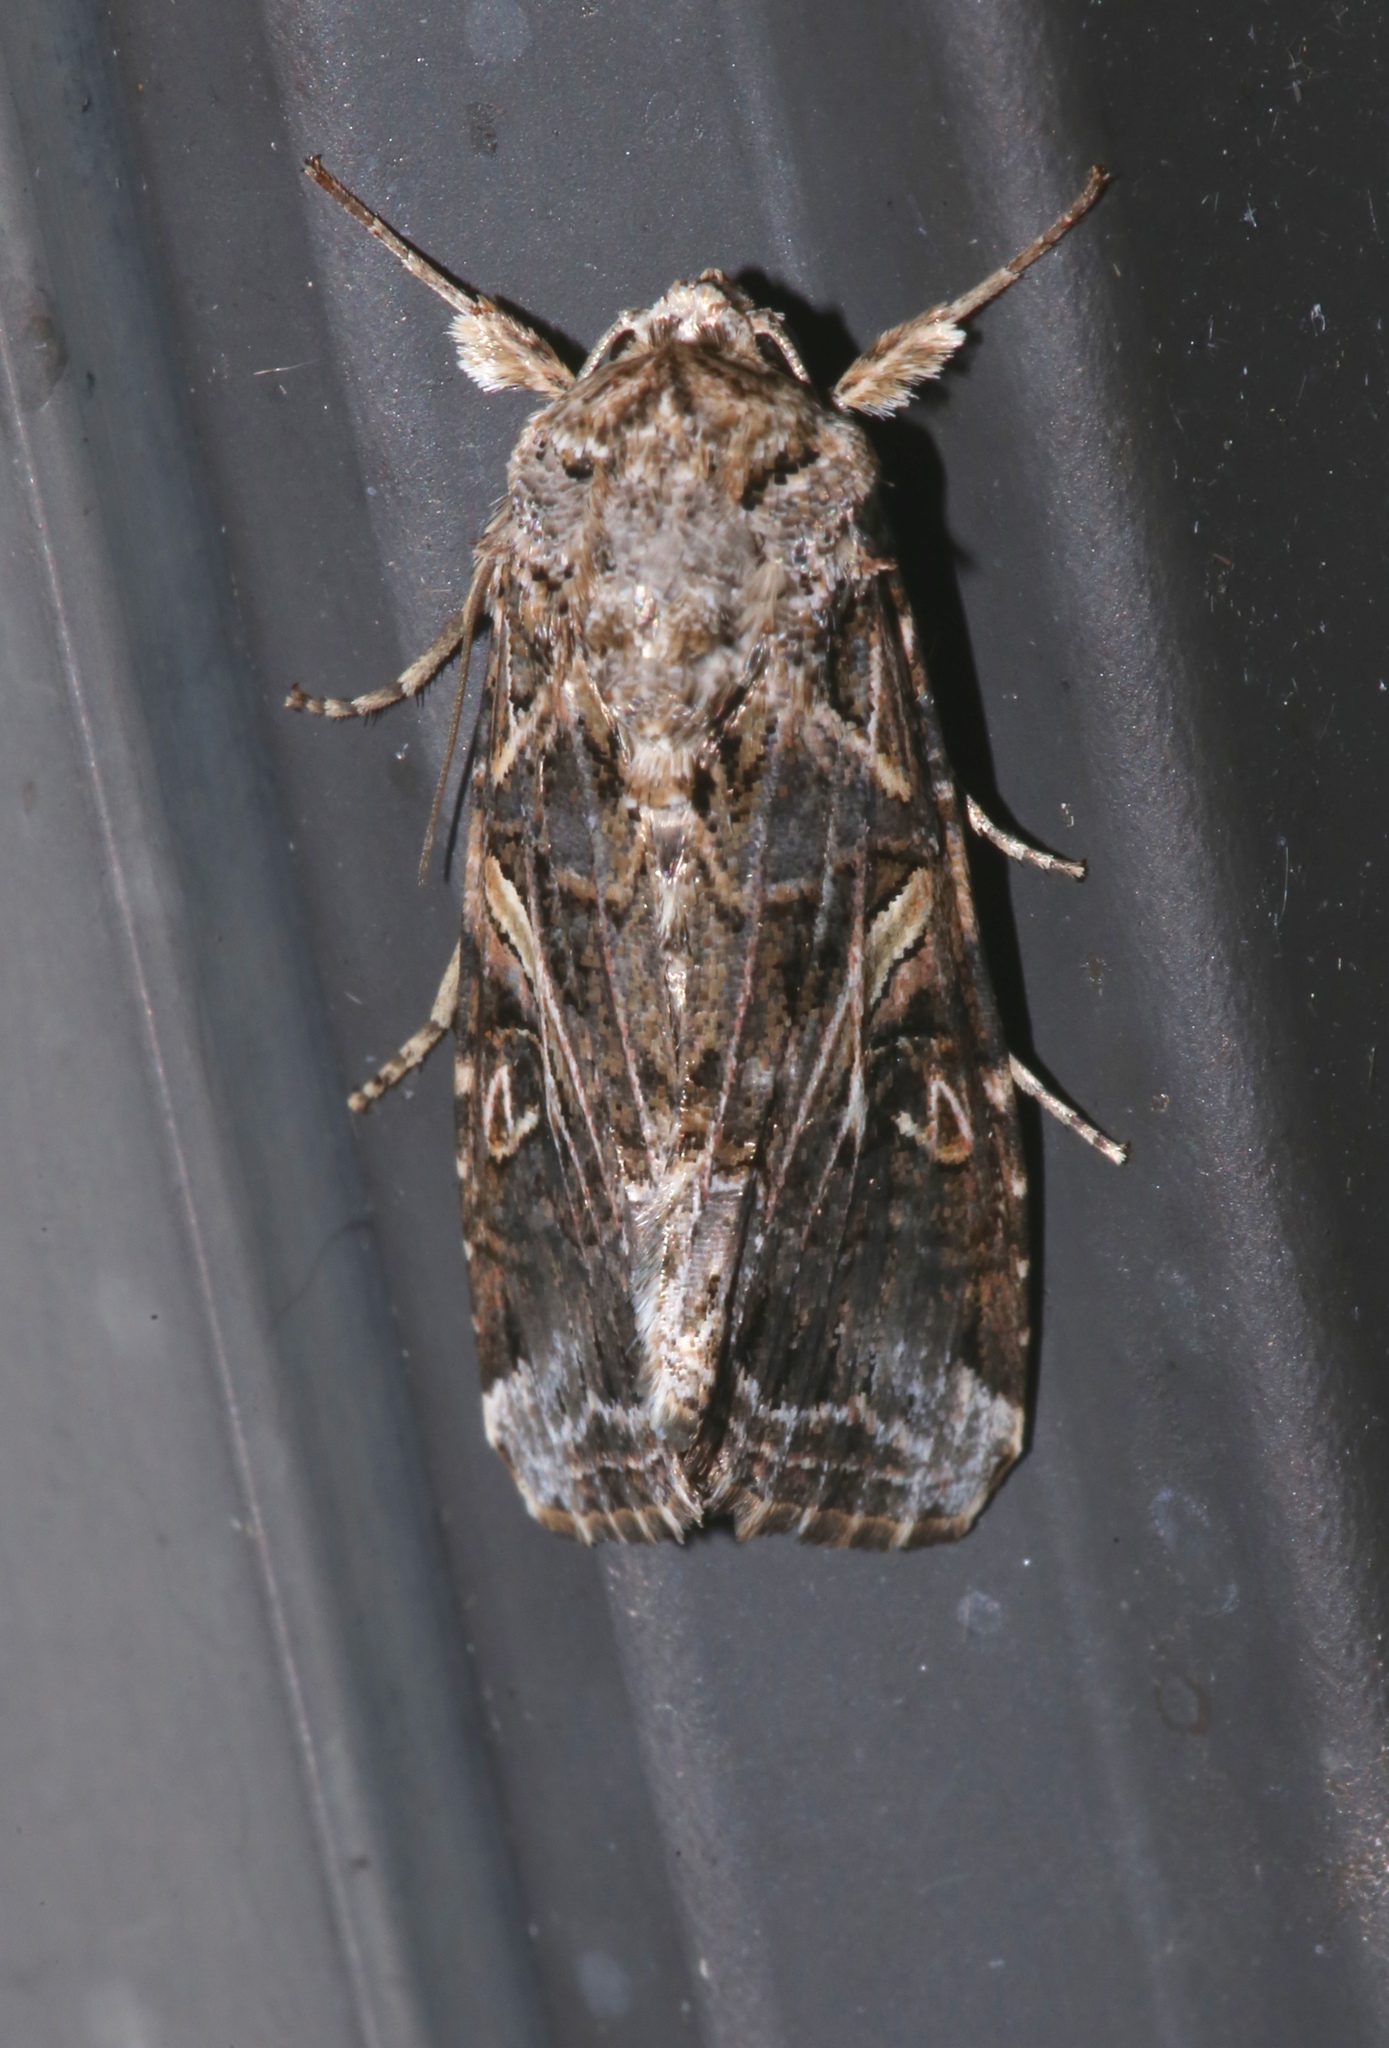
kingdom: Animalia
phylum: Arthropoda
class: Insecta
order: Lepidoptera
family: Noctuidae
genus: Spodoptera
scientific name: Spodoptera ornithogalli
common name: Yellow-striped armyworm
